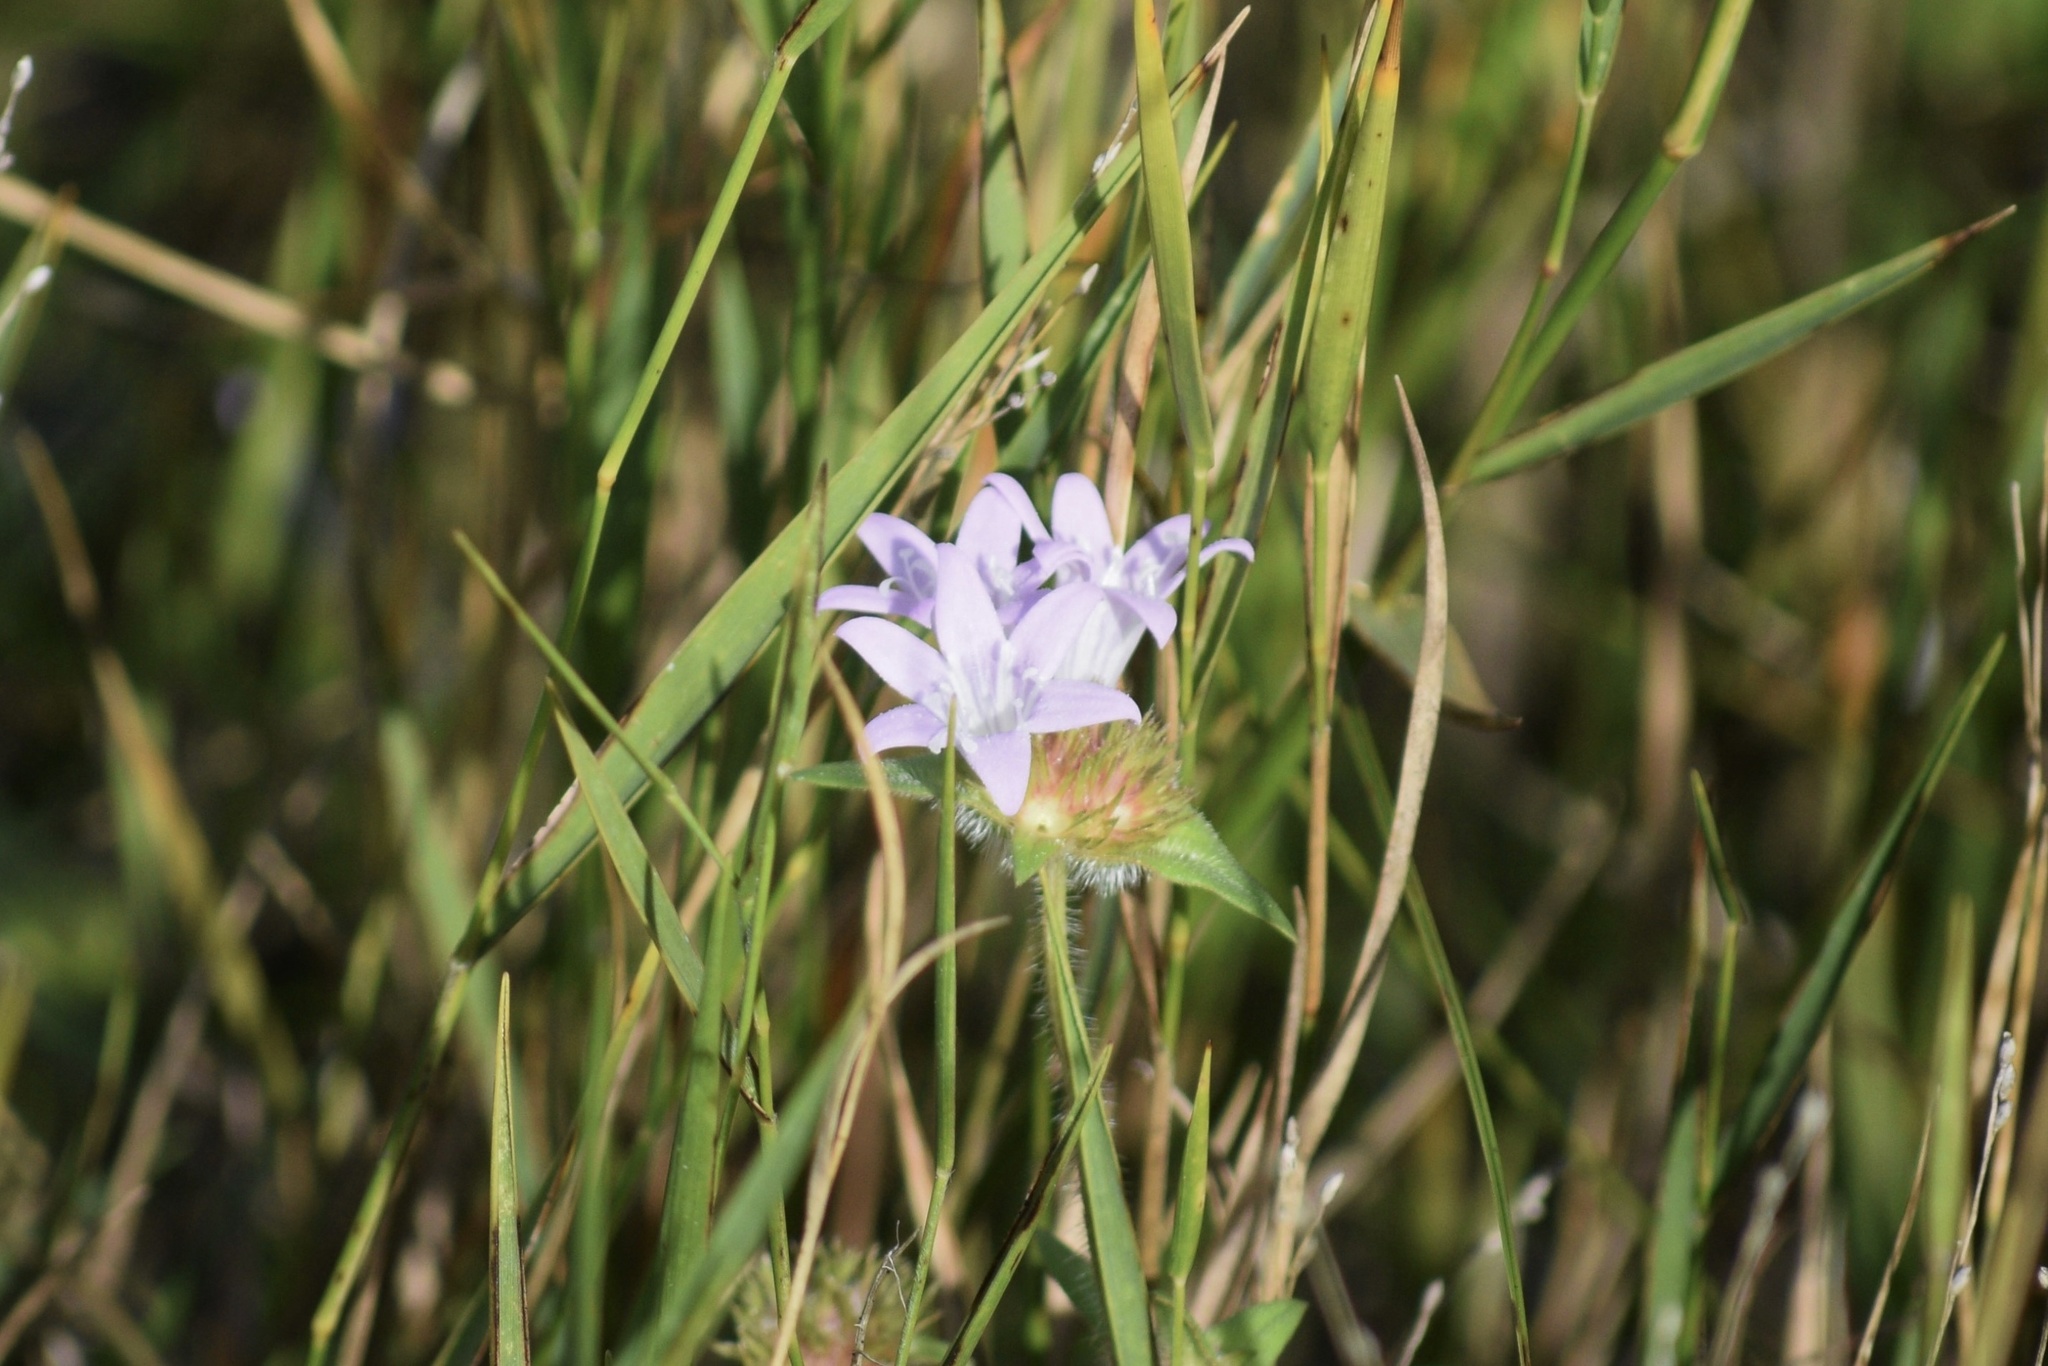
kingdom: Plantae
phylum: Tracheophyta
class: Magnoliopsida
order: Gentianales
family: Rubiaceae
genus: Richardia
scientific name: Richardia grandiflora
